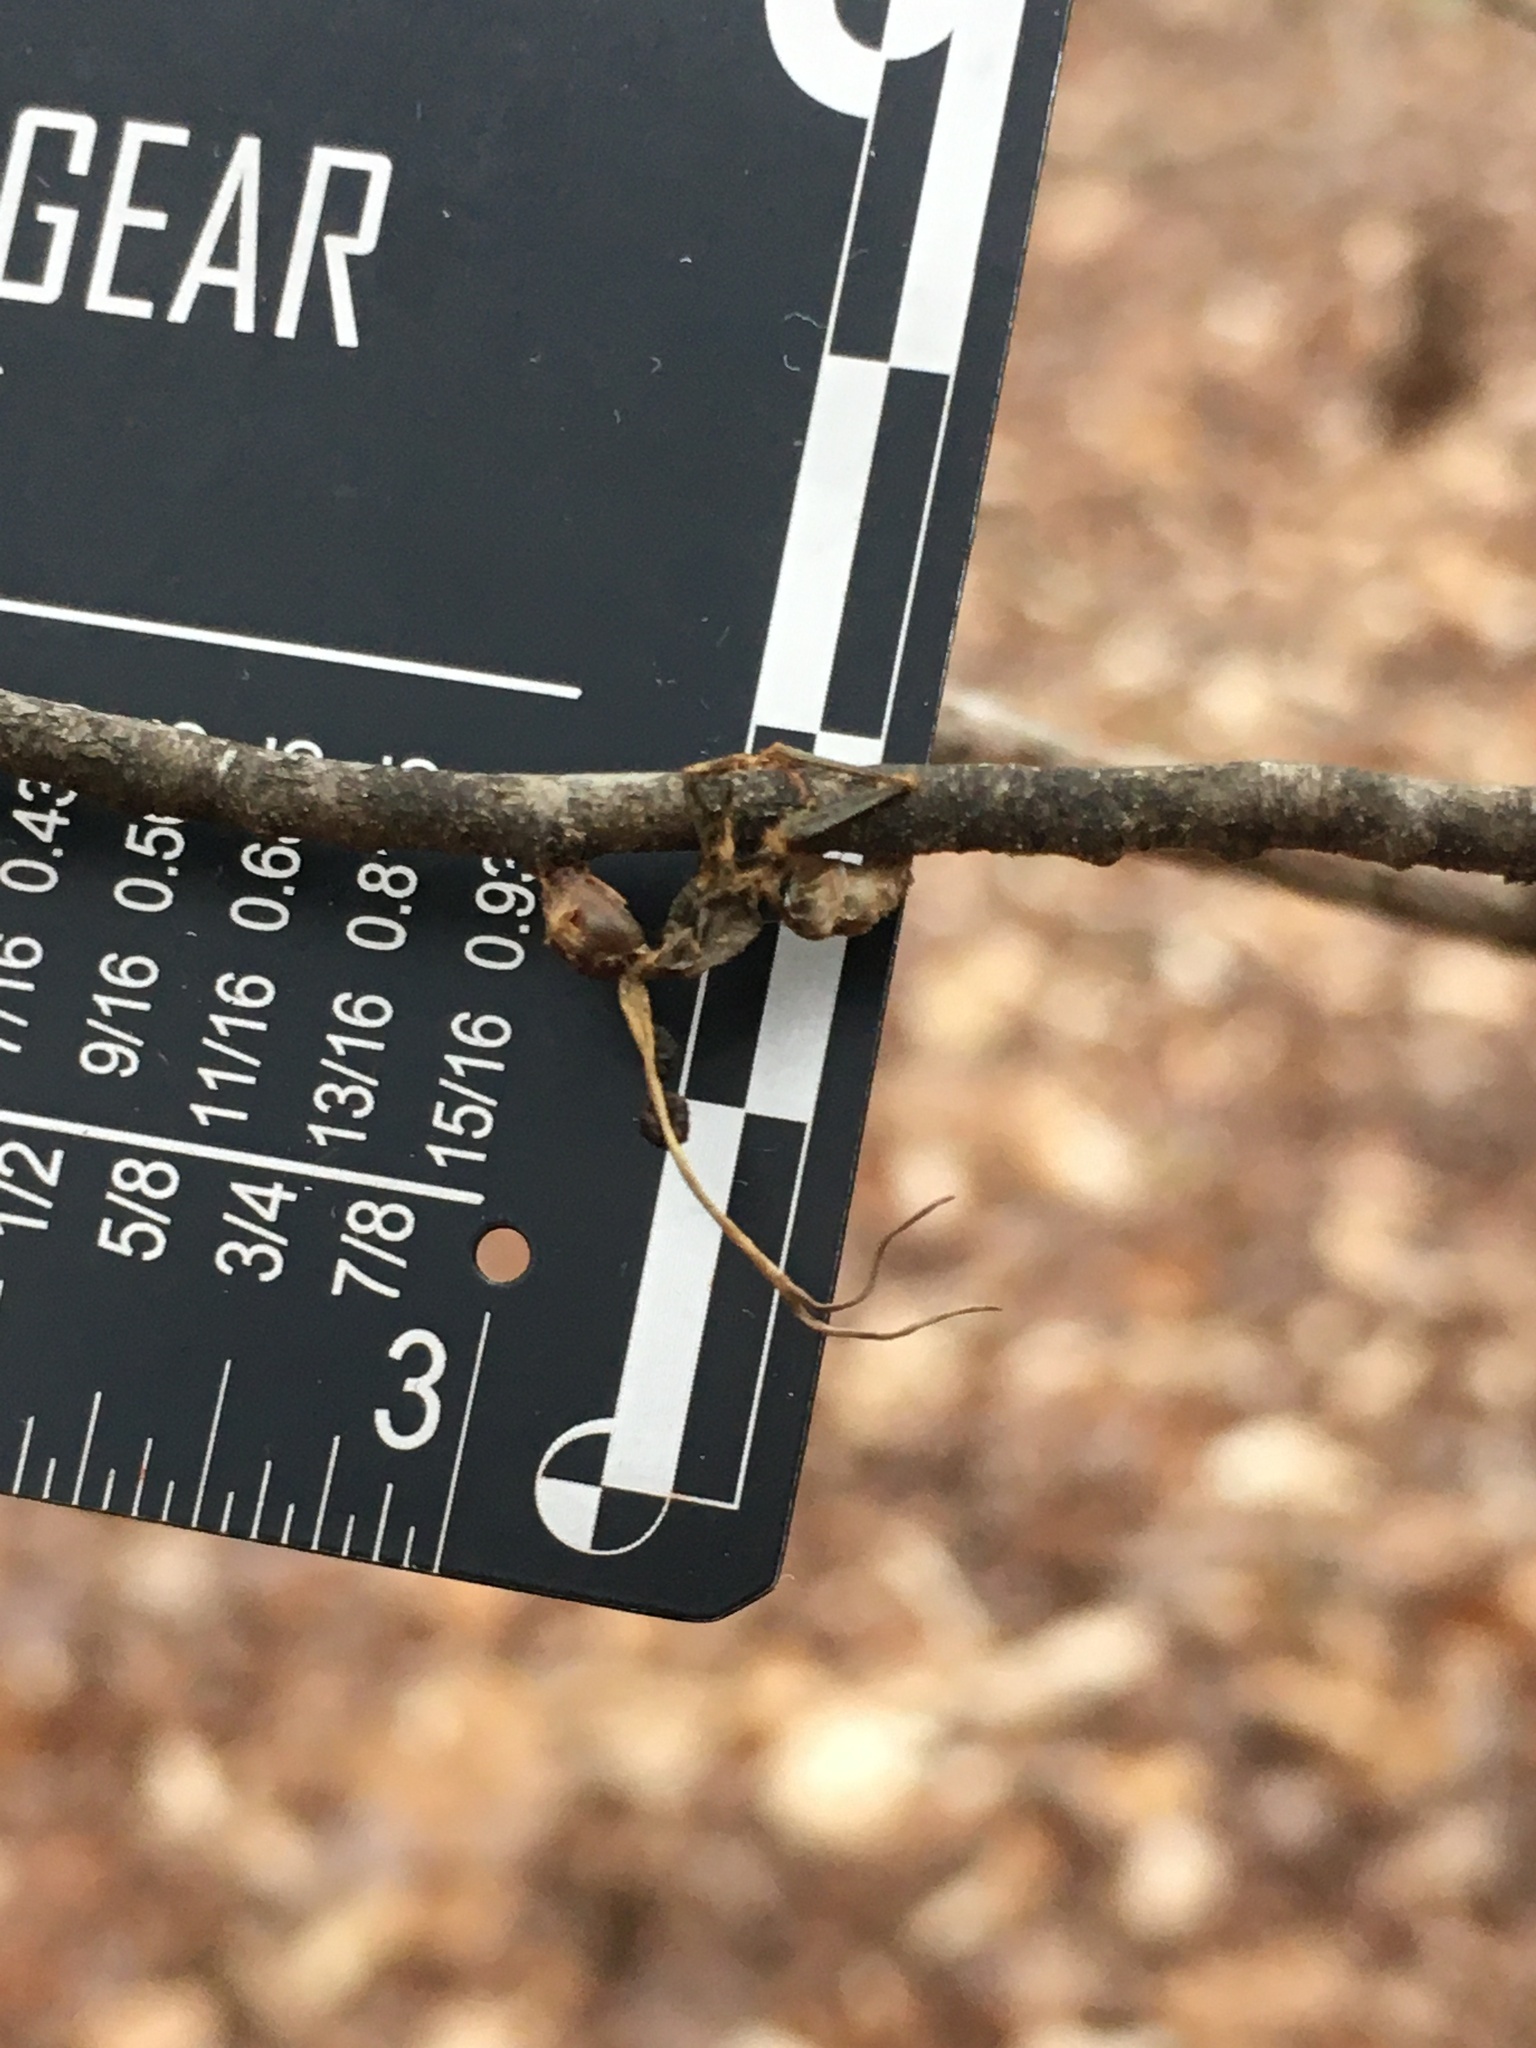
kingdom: Fungi
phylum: Ascomycota
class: Sordariomycetes
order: Hypocreales
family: Ophiocordycipitaceae
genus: Ophiocordyceps
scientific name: Ophiocordyceps kimflemingiae
